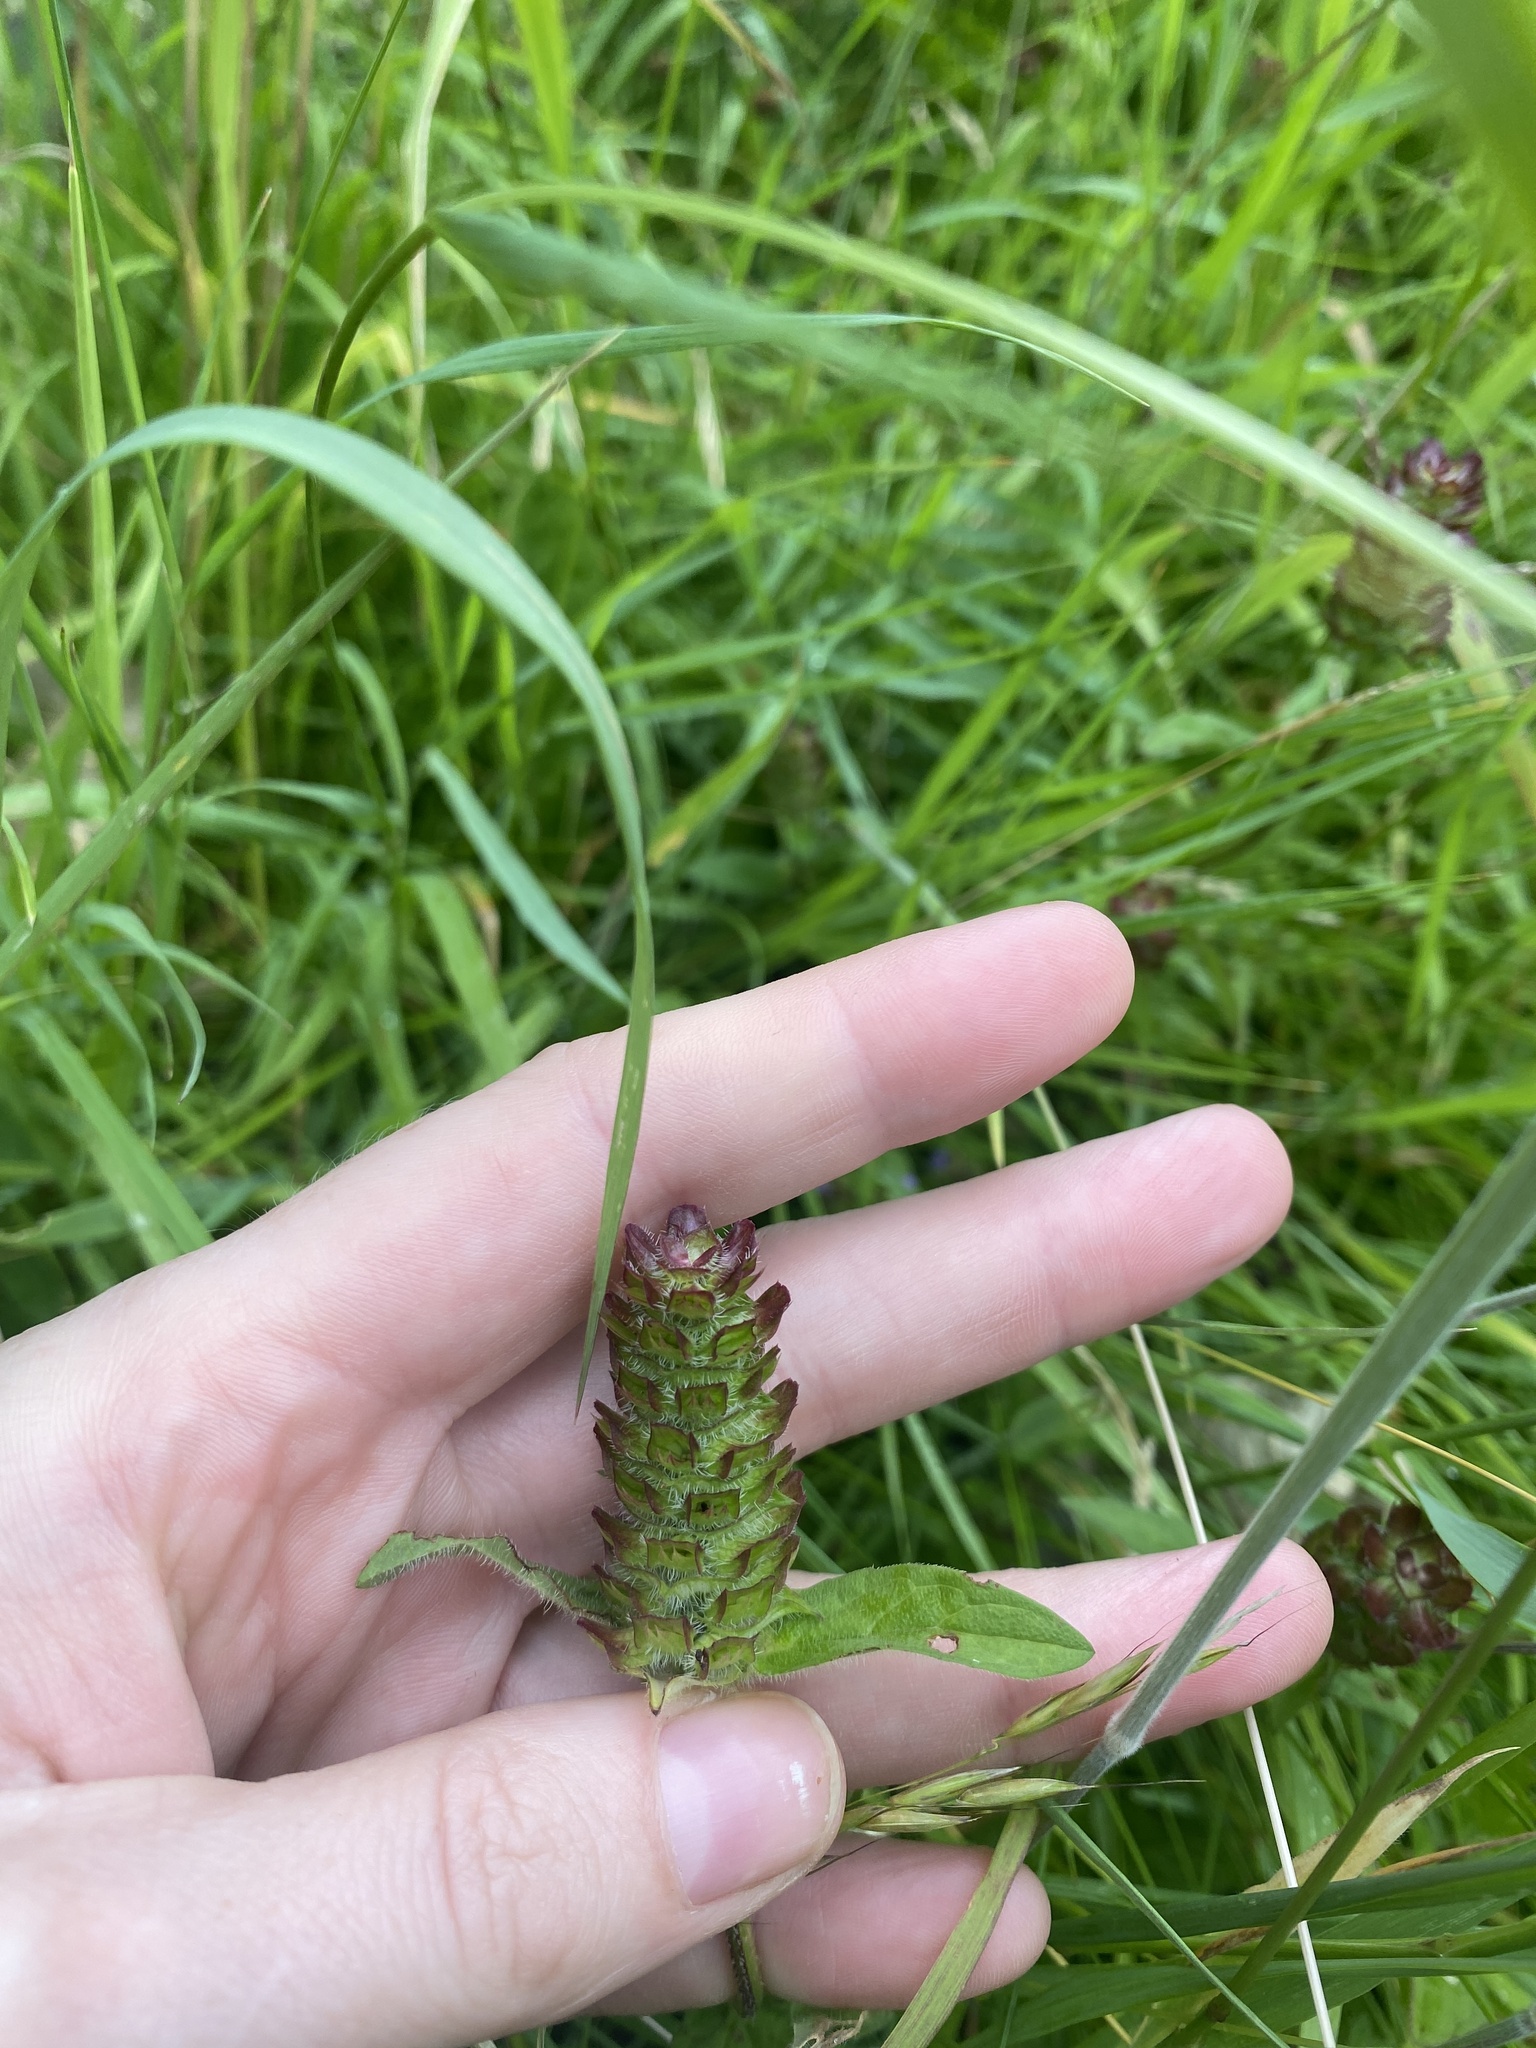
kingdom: Plantae
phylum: Tracheophyta
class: Magnoliopsida
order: Lamiales
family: Lamiaceae
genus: Prunella
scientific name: Prunella vulgaris
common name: Heal-all
